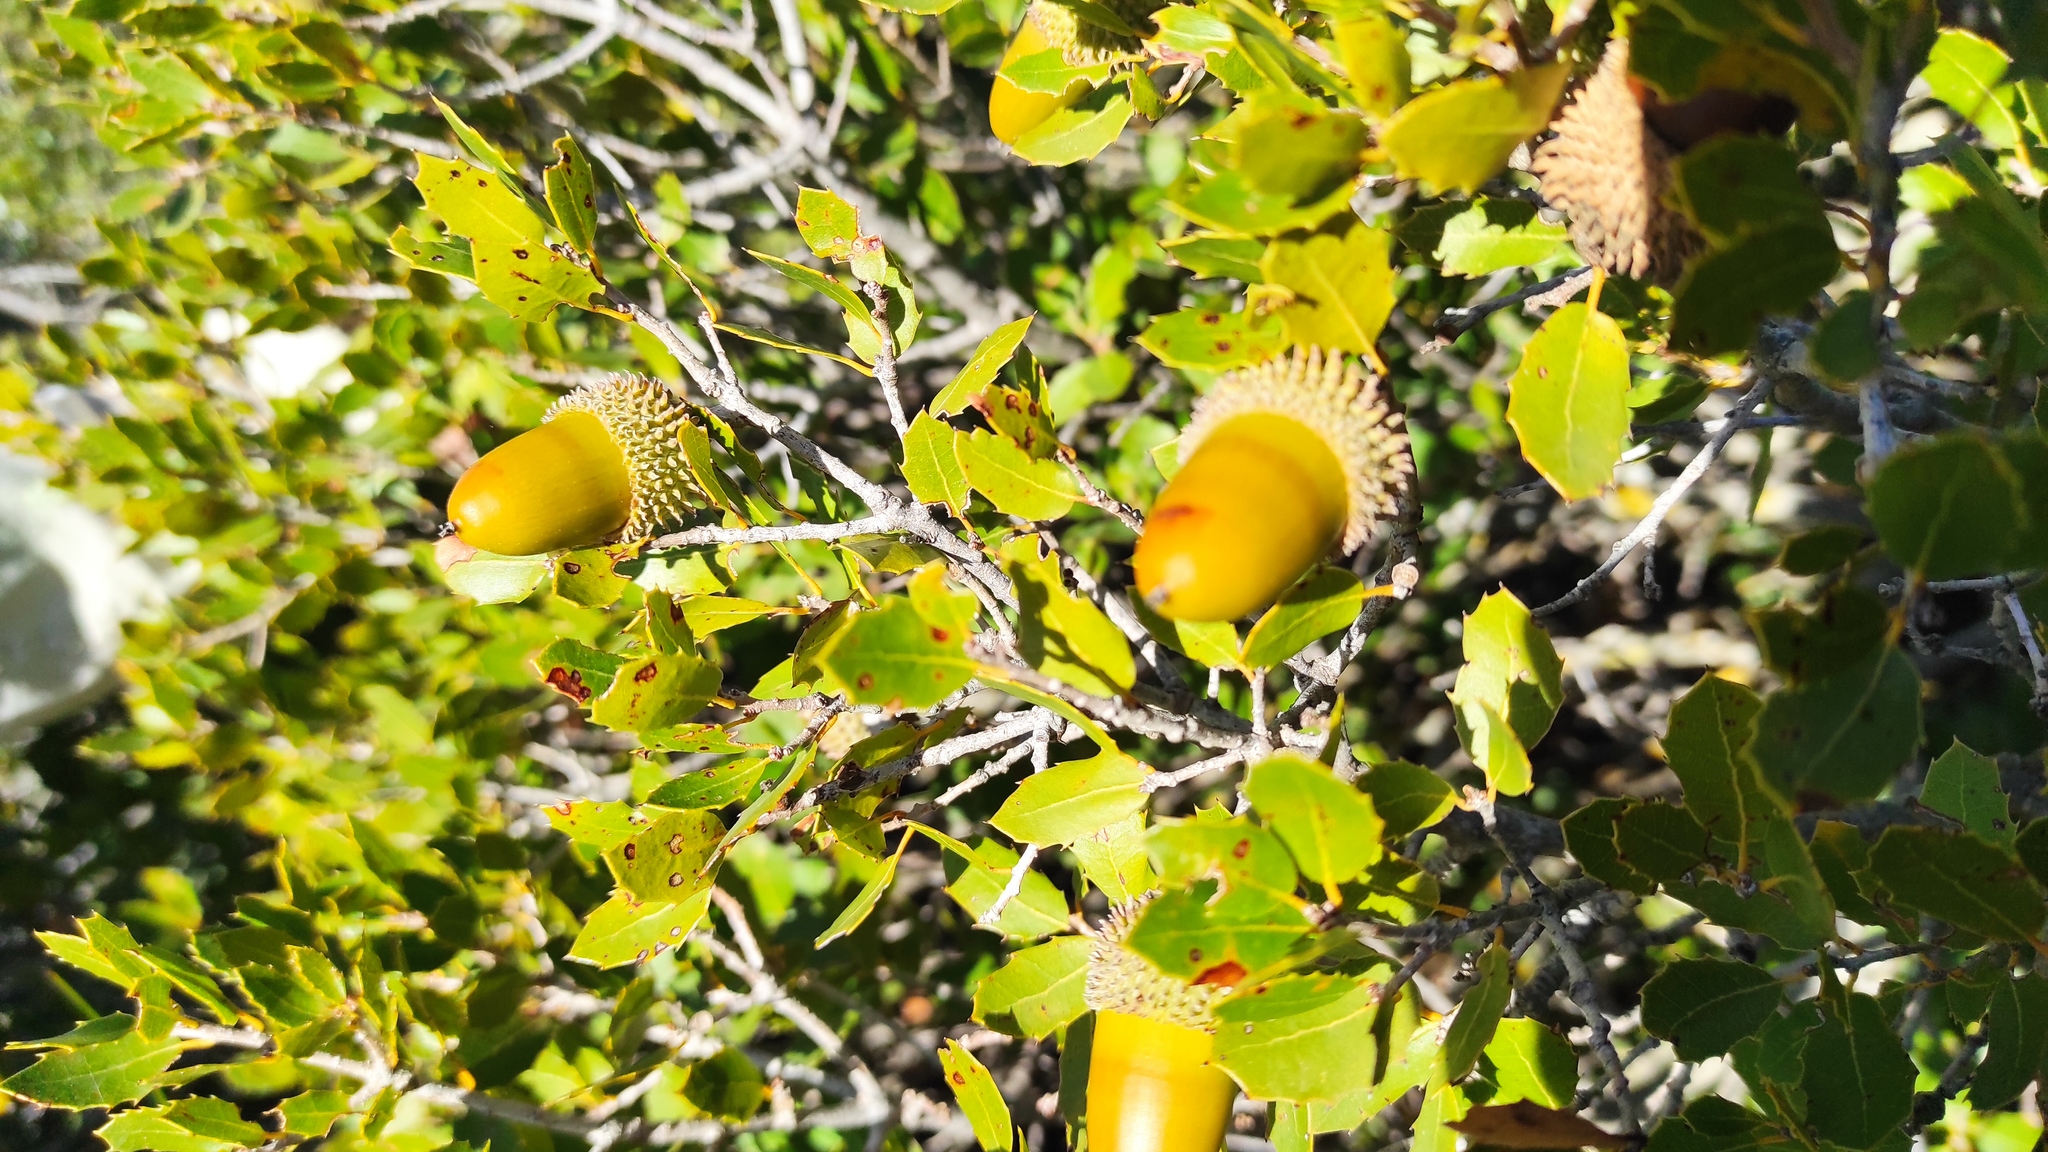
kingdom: Plantae
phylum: Tracheophyta
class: Magnoliopsida
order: Fagales
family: Fagaceae
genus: Quercus
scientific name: Quercus coccifera
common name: Kermes oak
